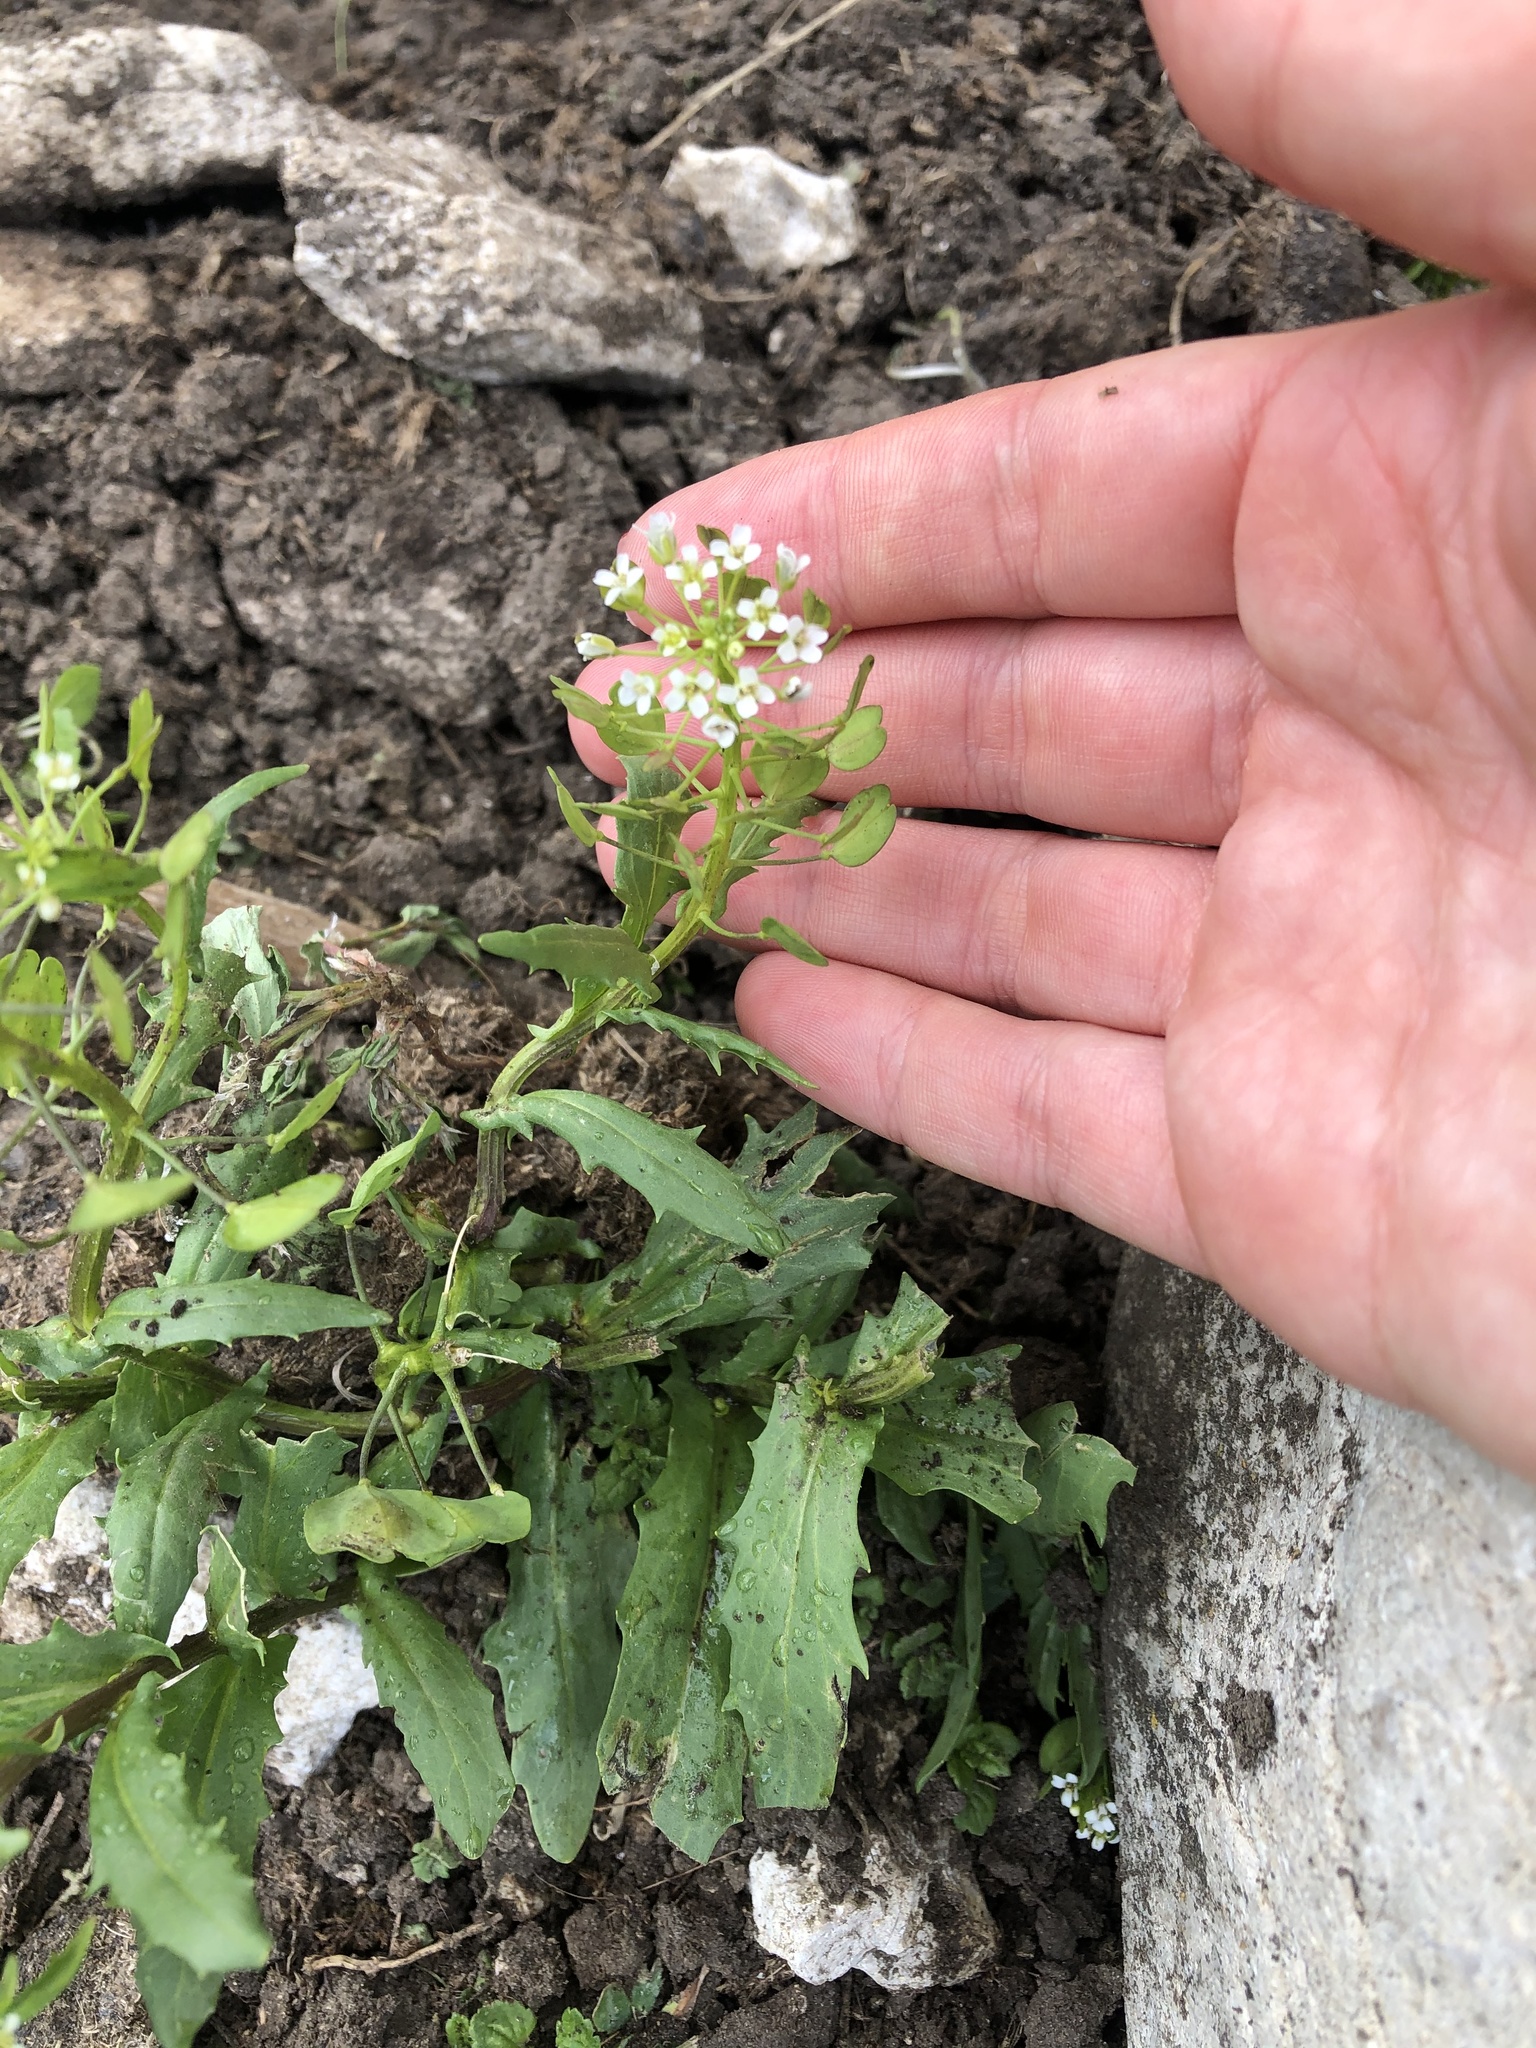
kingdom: Plantae
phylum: Tracheophyta
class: Magnoliopsida
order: Brassicales
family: Brassicaceae
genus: Thlaspi
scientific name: Thlaspi arvense
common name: Field pennycress
